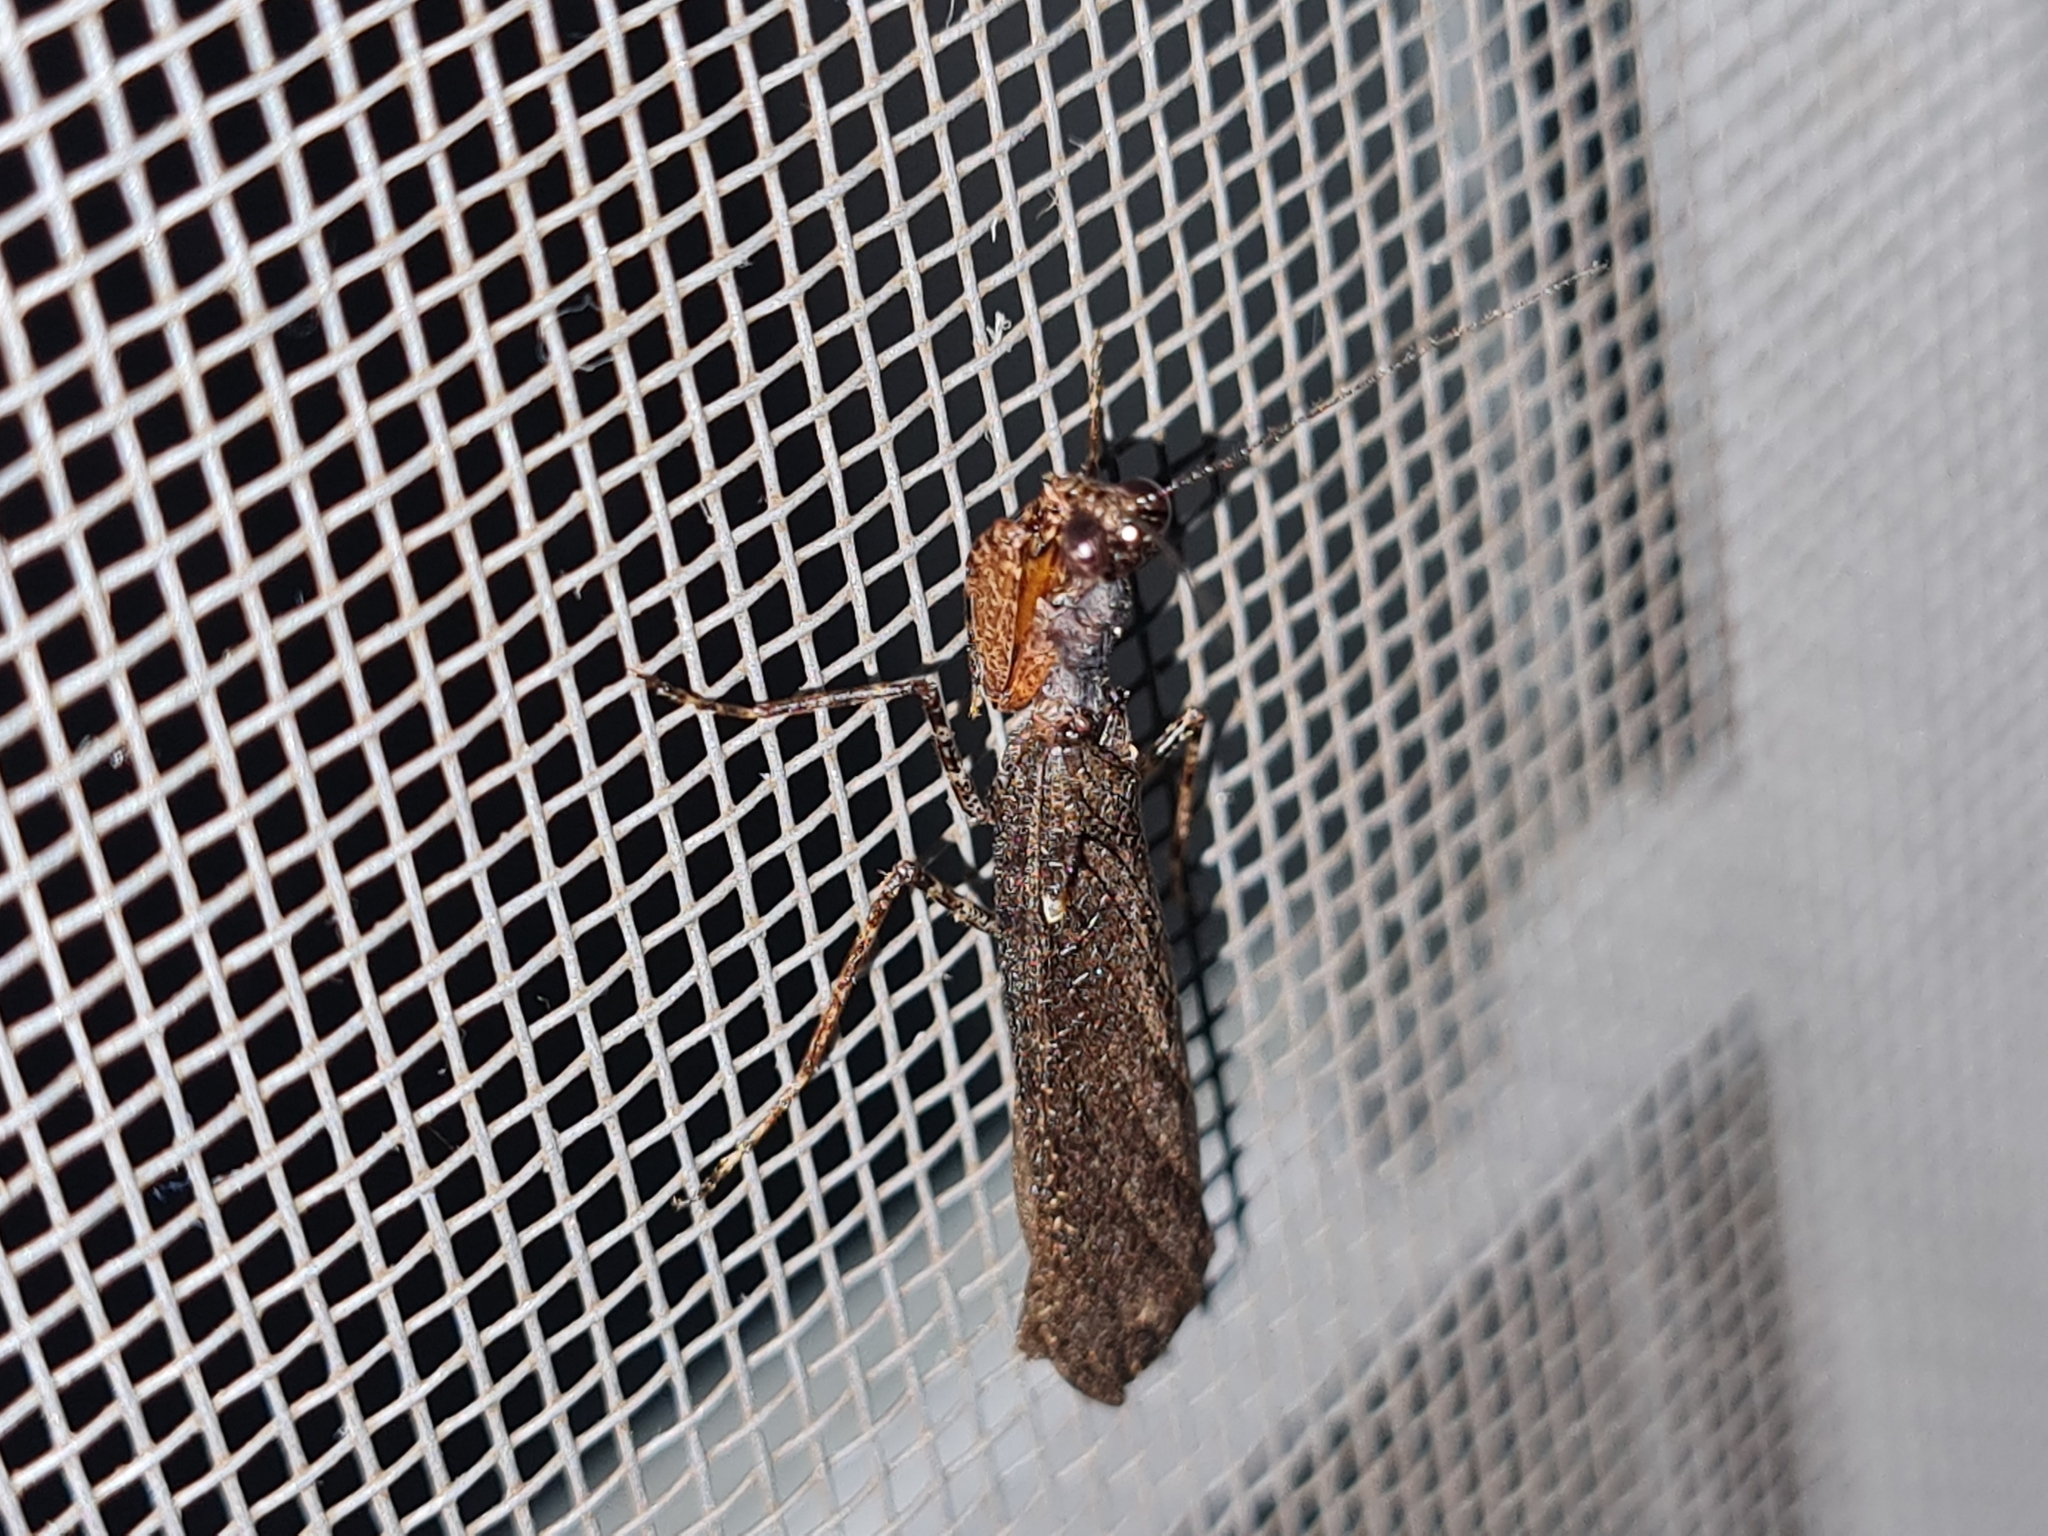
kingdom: Animalia
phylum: Arthropoda
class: Insecta
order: Mantodea
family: Thespidae
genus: Pseudomiopteryx
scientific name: Pseudomiopteryx infuscata
